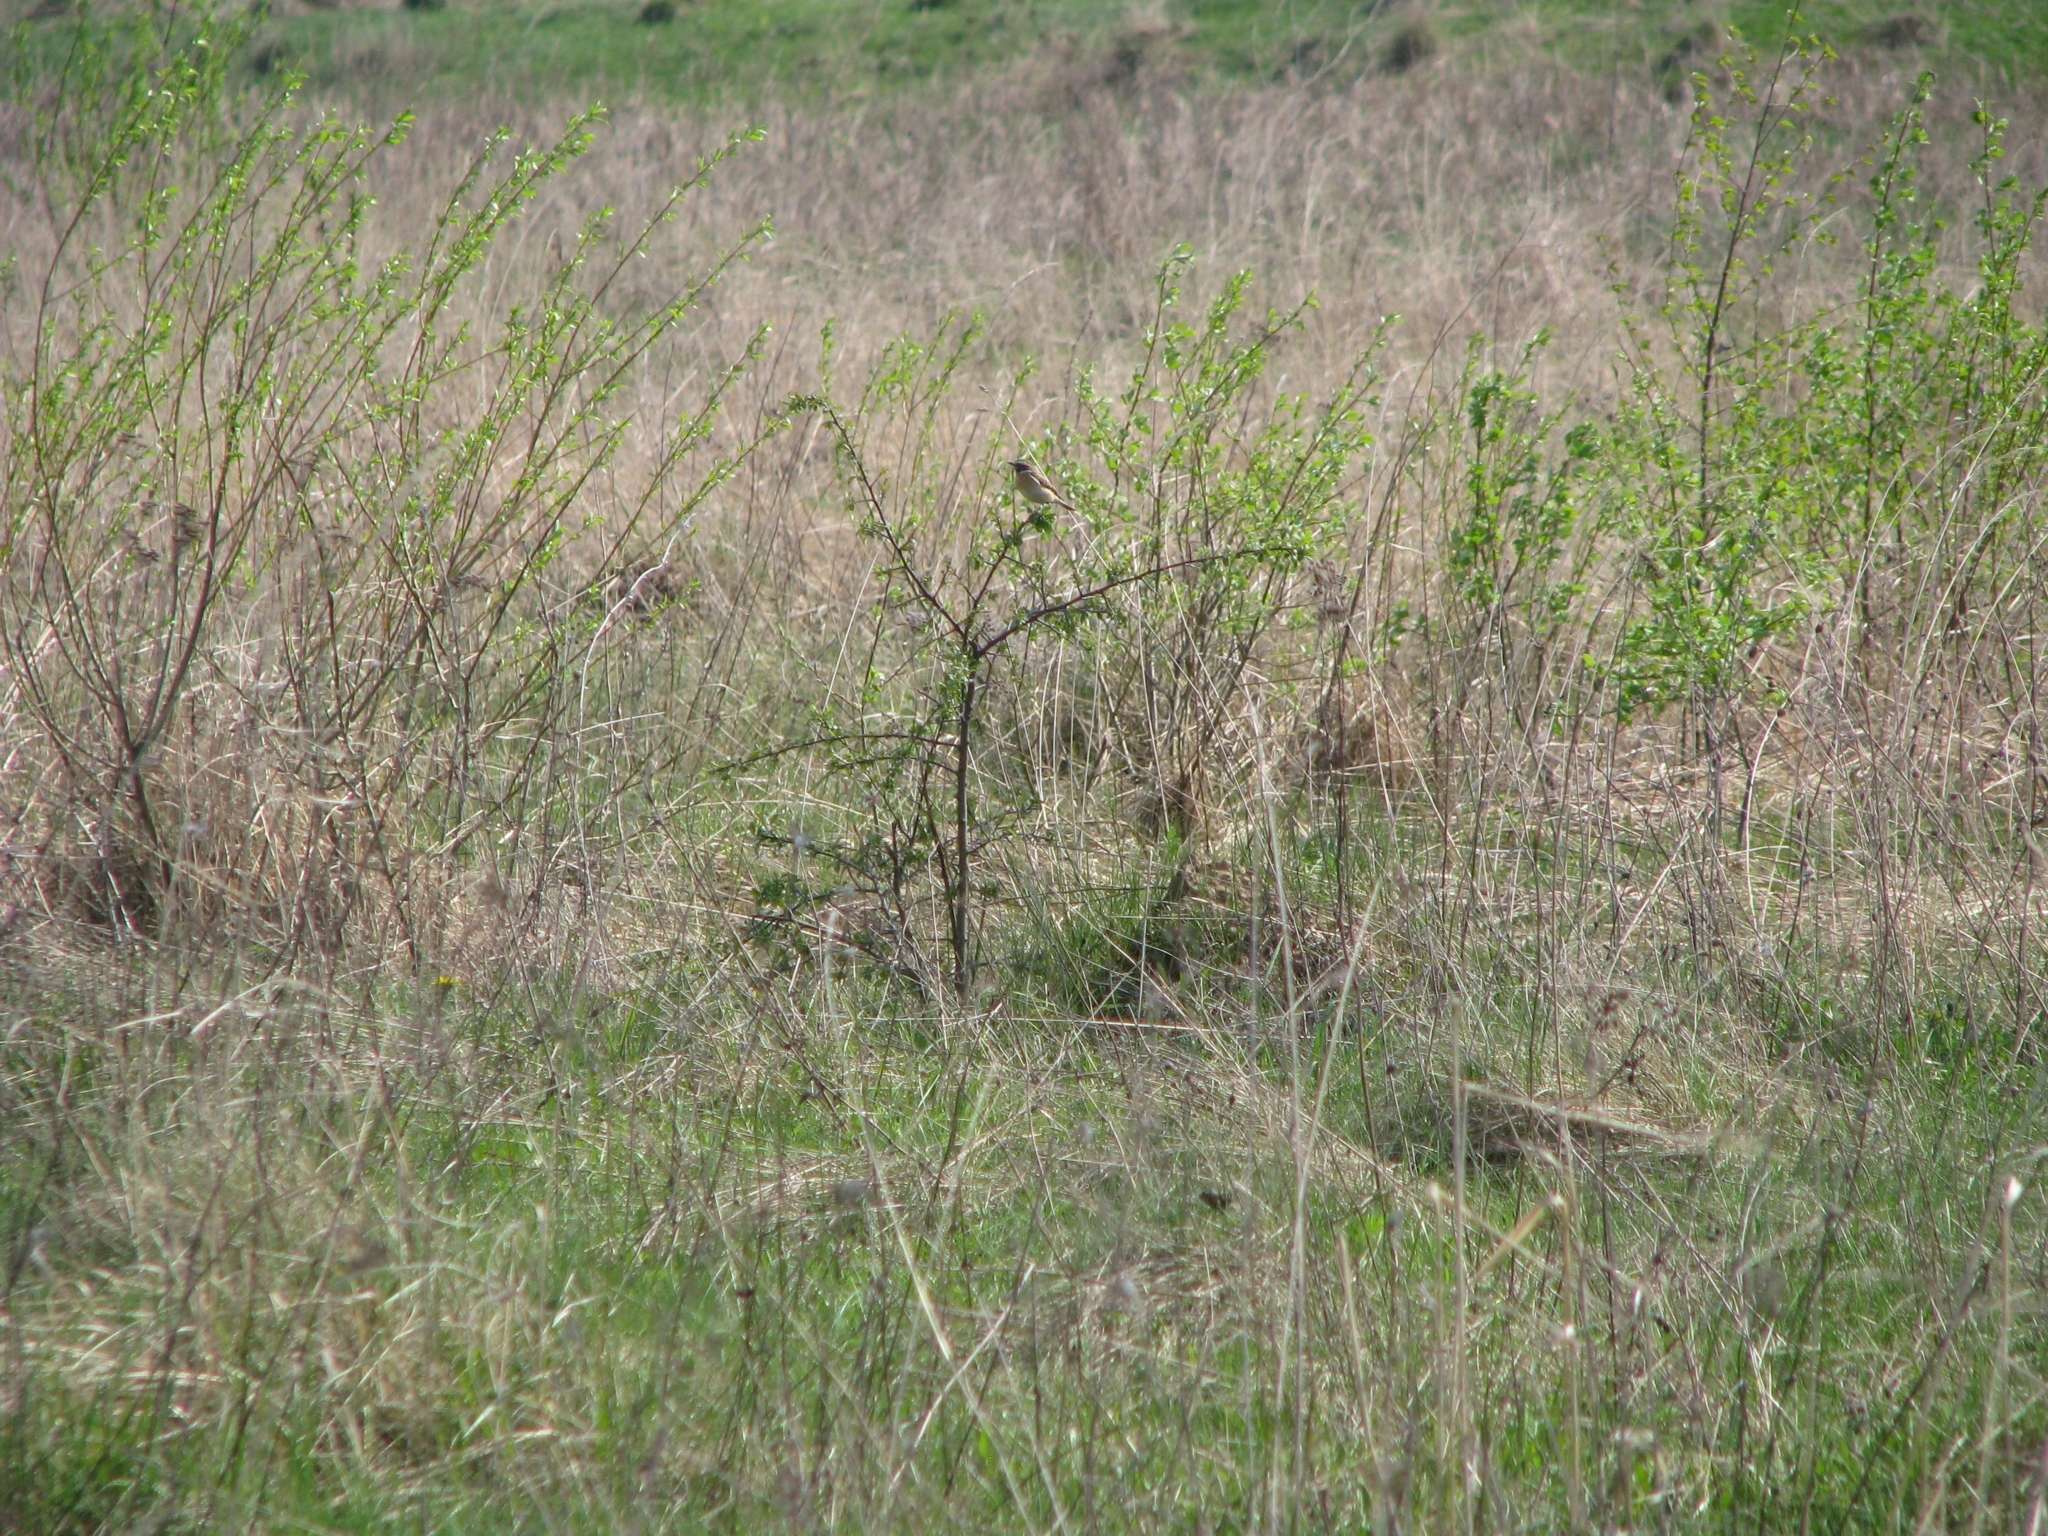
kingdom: Animalia
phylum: Chordata
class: Aves
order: Passeriformes
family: Muscicapidae
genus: Saxicola
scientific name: Saxicola rubetra
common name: Whinchat
